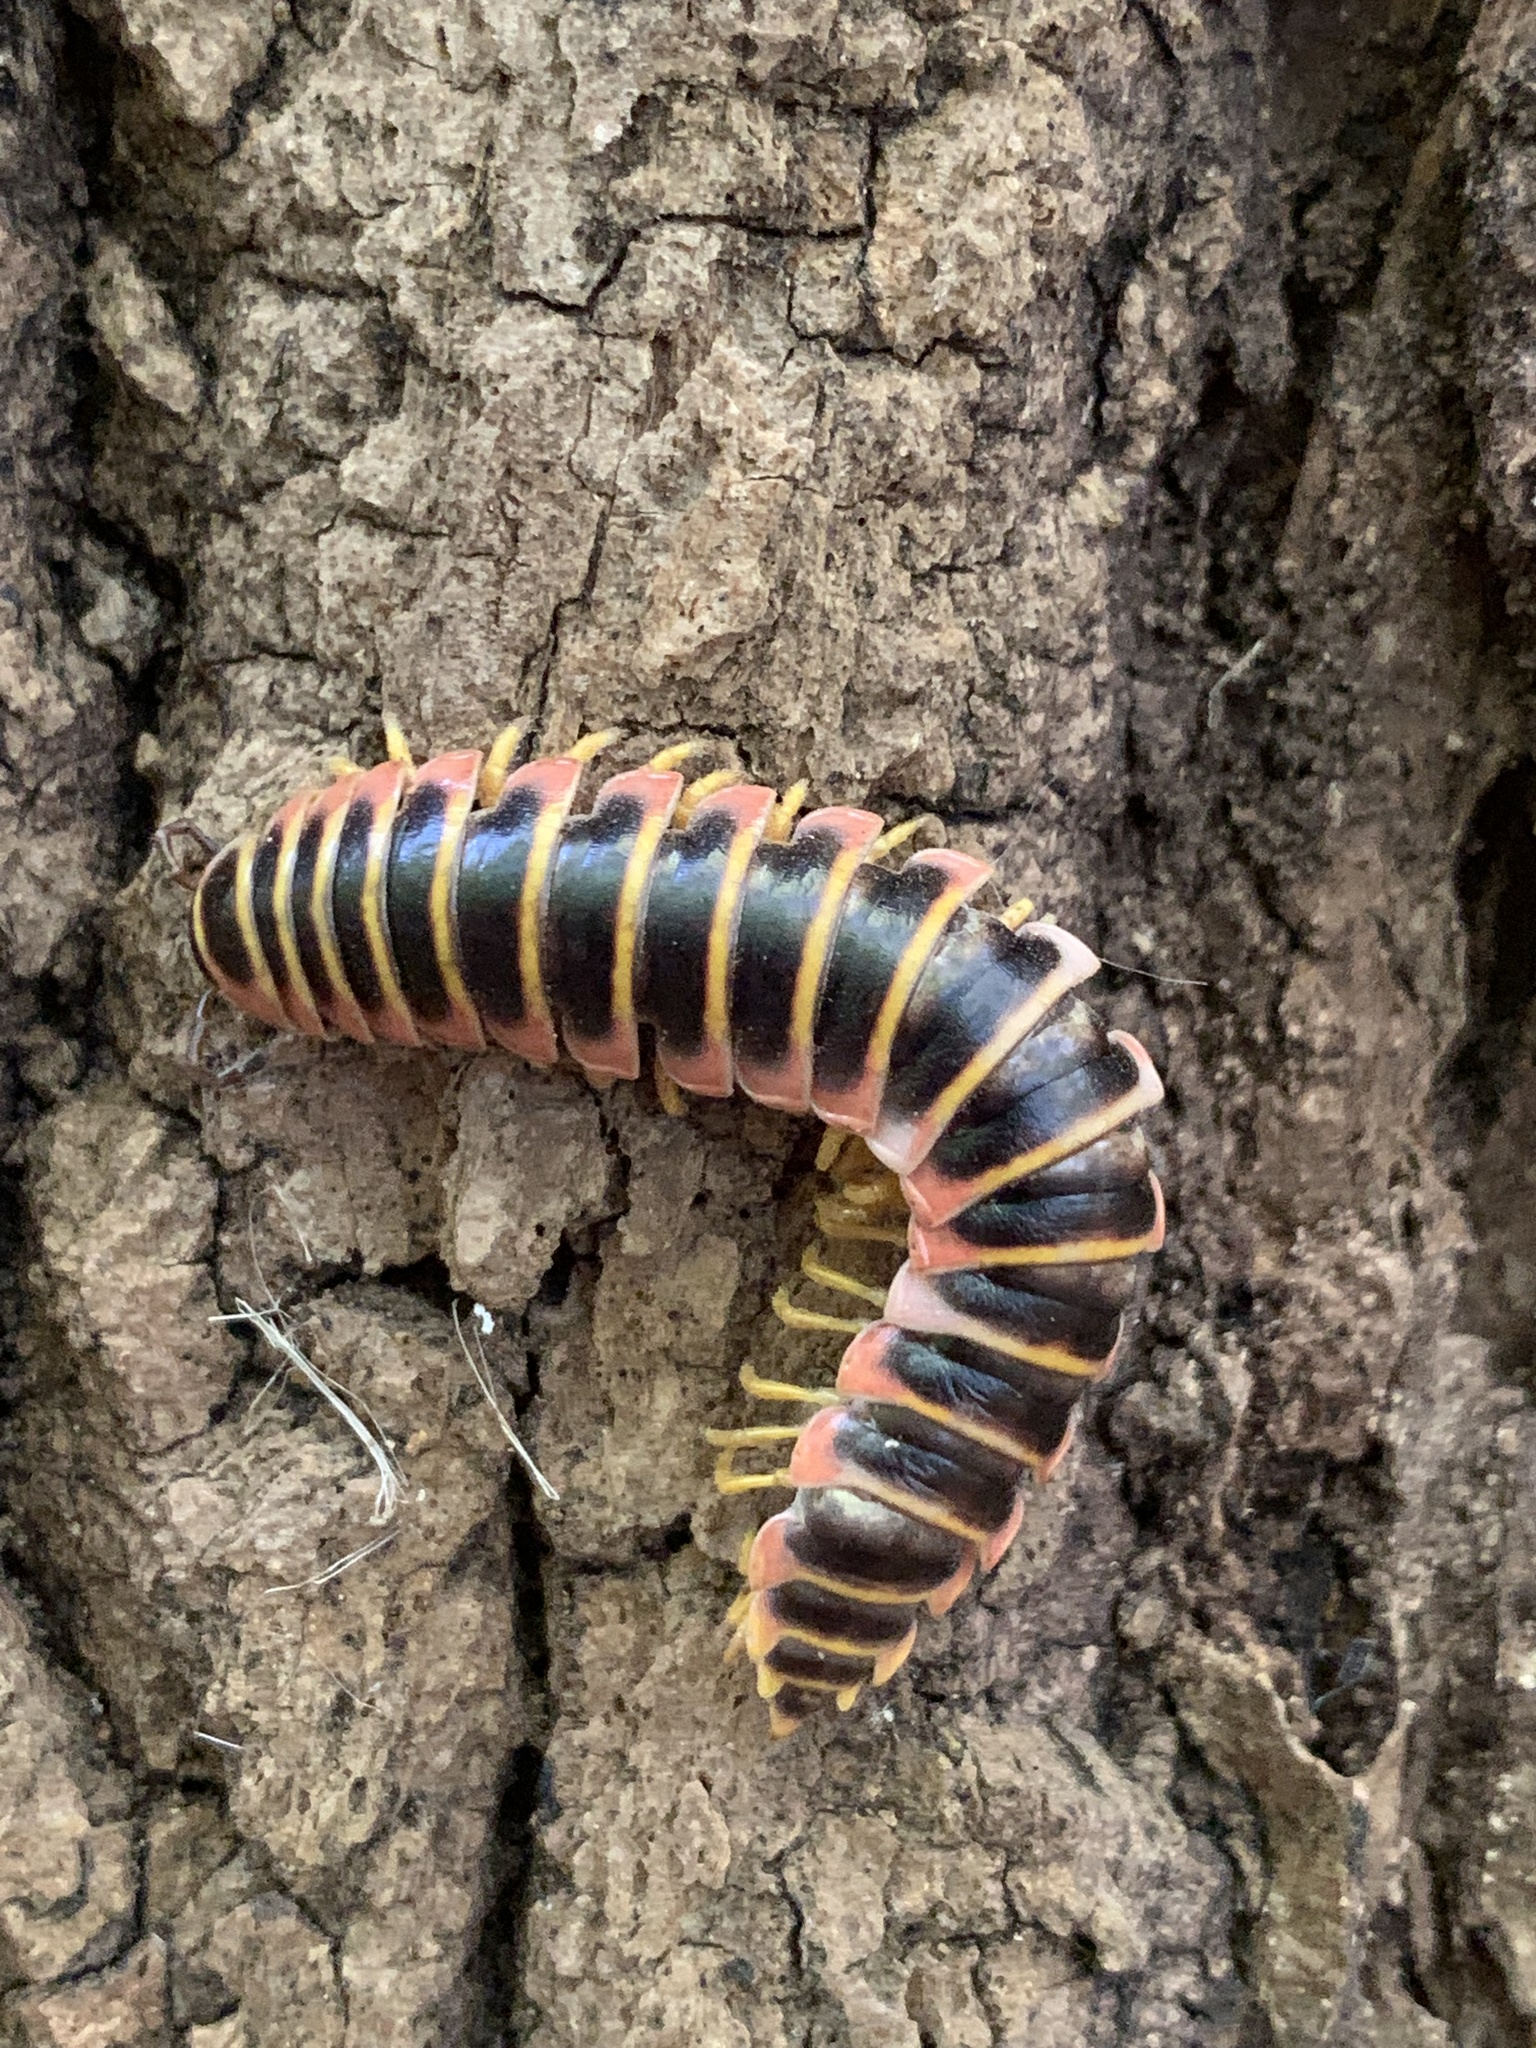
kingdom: Animalia
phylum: Arthropoda
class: Diplopoda
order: Polydesmida
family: Xystodesmidae
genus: Apheloria
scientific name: Apheloria virginiensis
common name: Black-and-gold flat millipede
